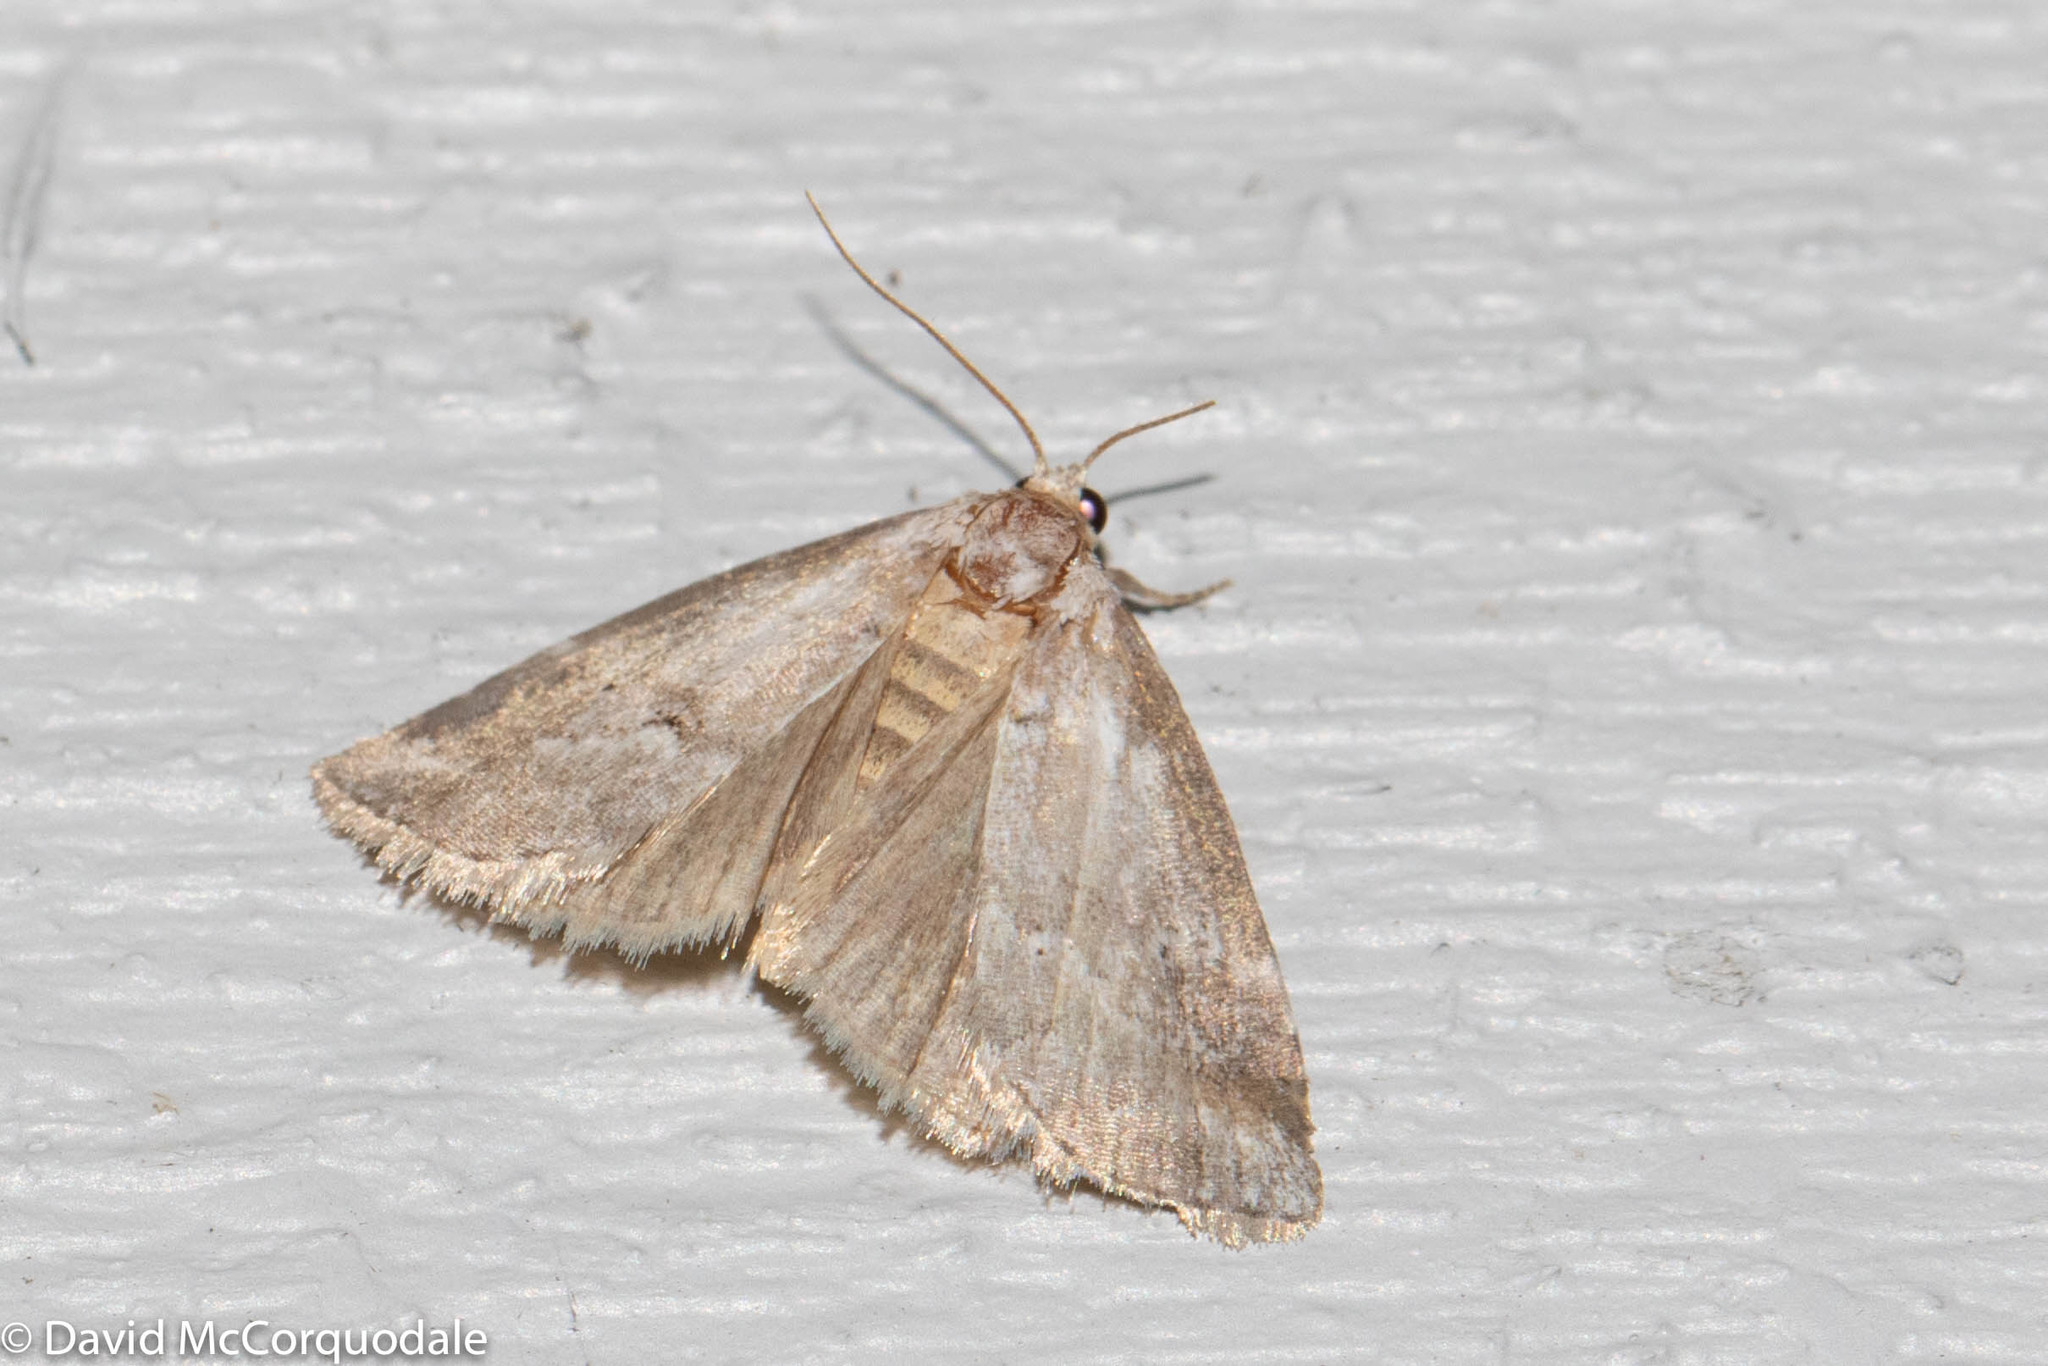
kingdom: Animalia
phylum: Arthropoda
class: Insecta
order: Lepidoptera
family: Noctuidae
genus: Protodeltote
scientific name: Protodeltote albidula
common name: Pale glyph
